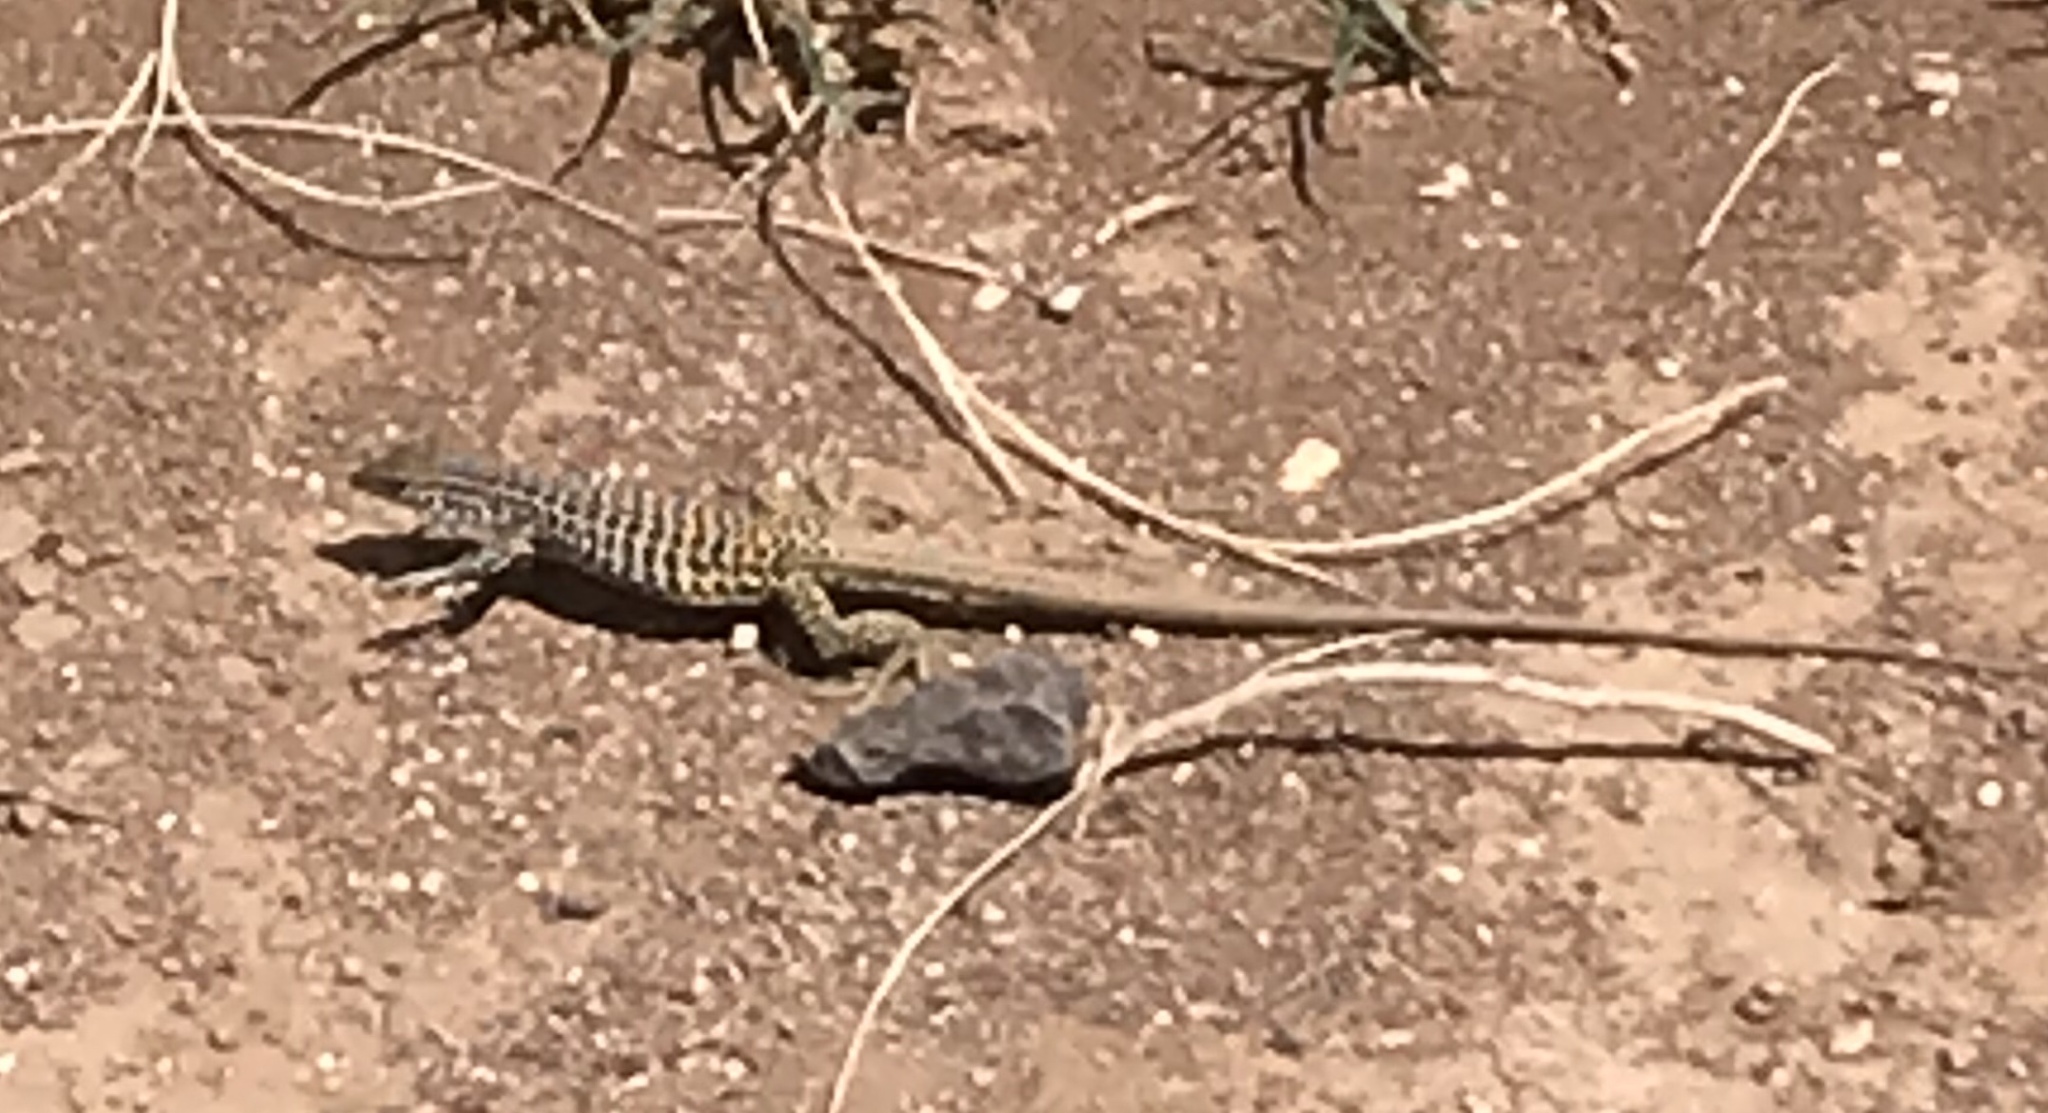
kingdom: Animalia
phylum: Chordata
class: Squamata
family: Teiidae
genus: Aspidoscelis
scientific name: Aspidoscelis tesselatus
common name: Common checkered whiptail [tesselata]
